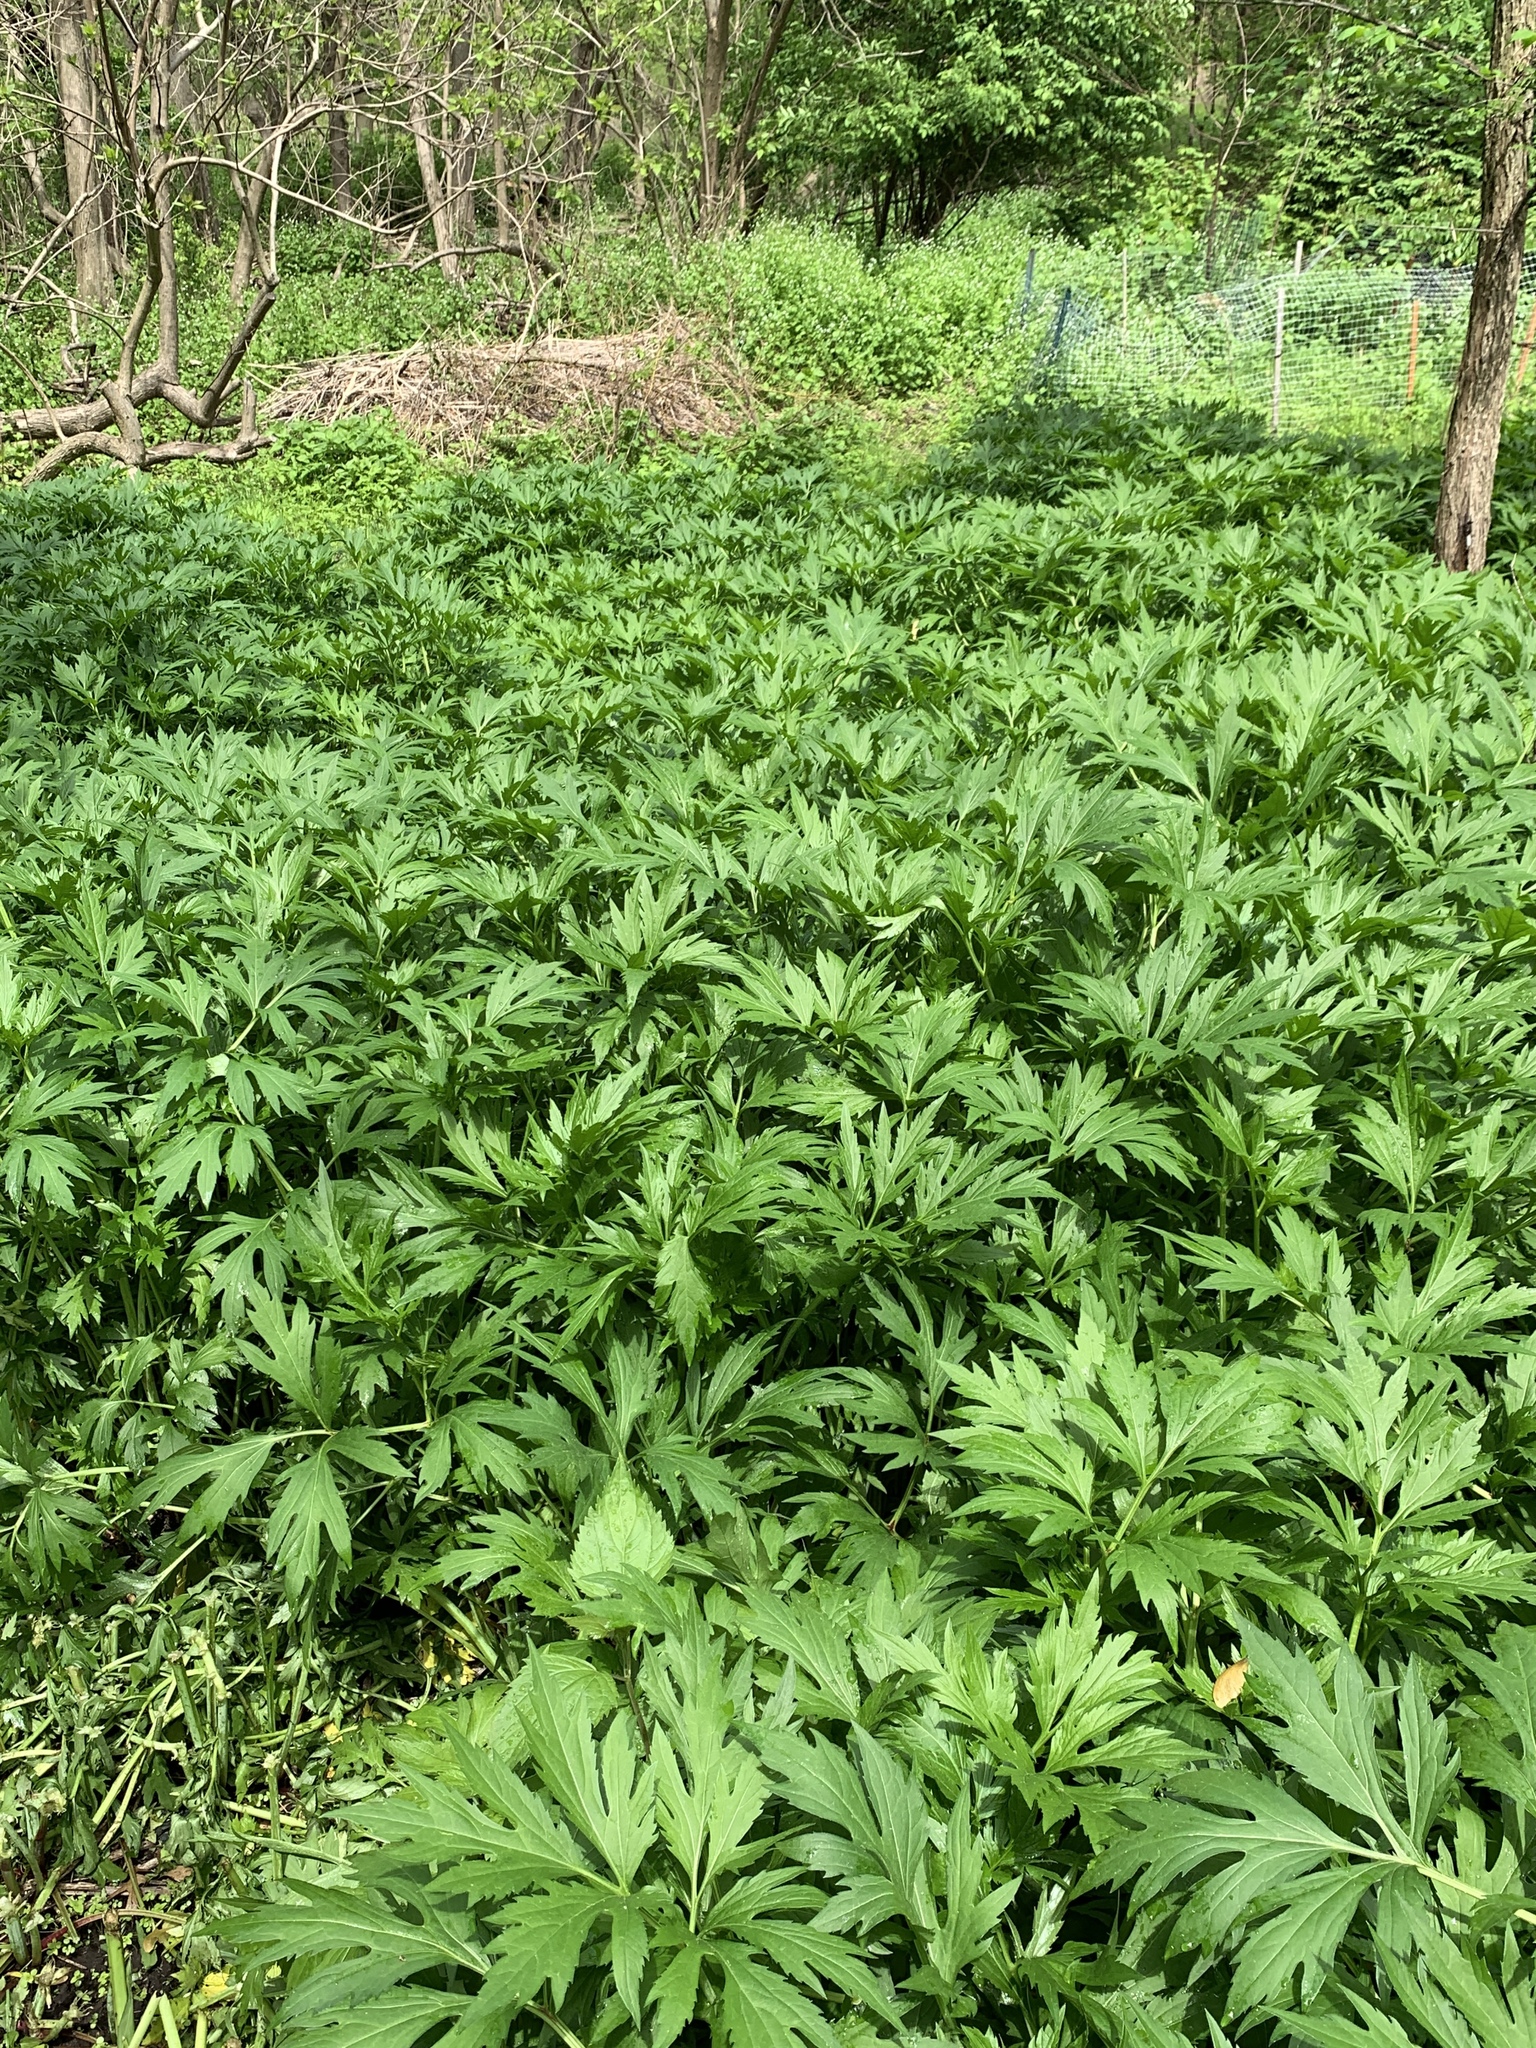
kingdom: Plantae
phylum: Tracheophyta
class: Magnoliopsida
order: Asterales
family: Asteraceae
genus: Rudbeckia
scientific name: Rudbeckia laciniata
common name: Coneflower
